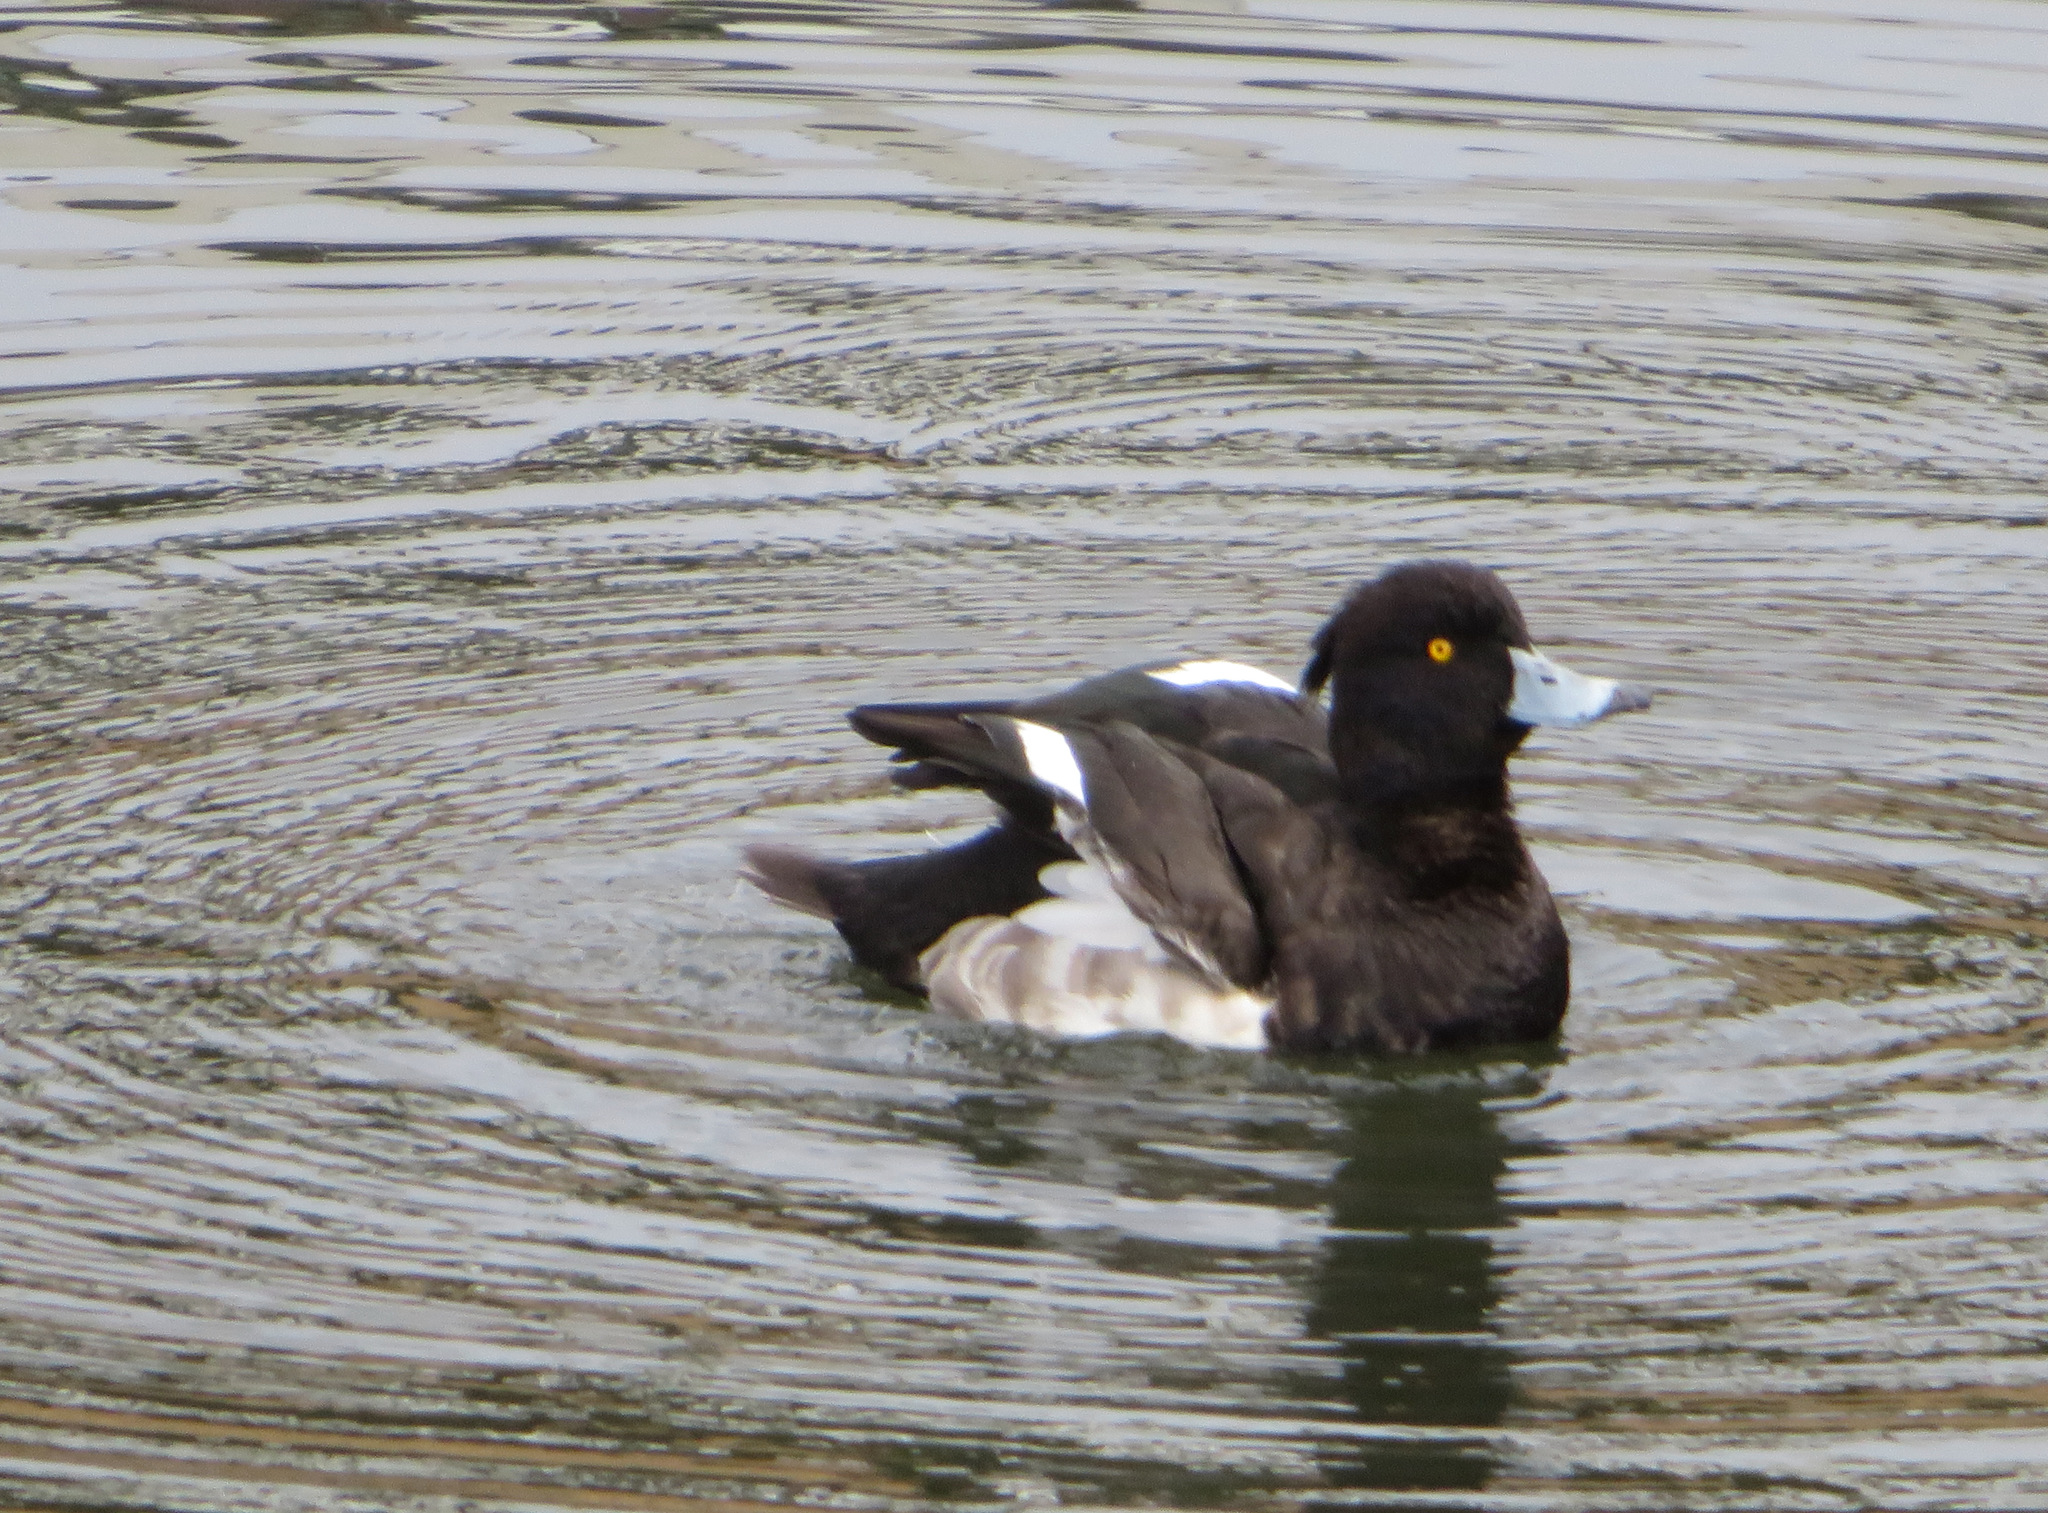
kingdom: Animalia
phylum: Chordata
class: Aves
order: Anseriformes
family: Anatidae
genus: Aythya
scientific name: Aythya fuligula
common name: Tufted duck
